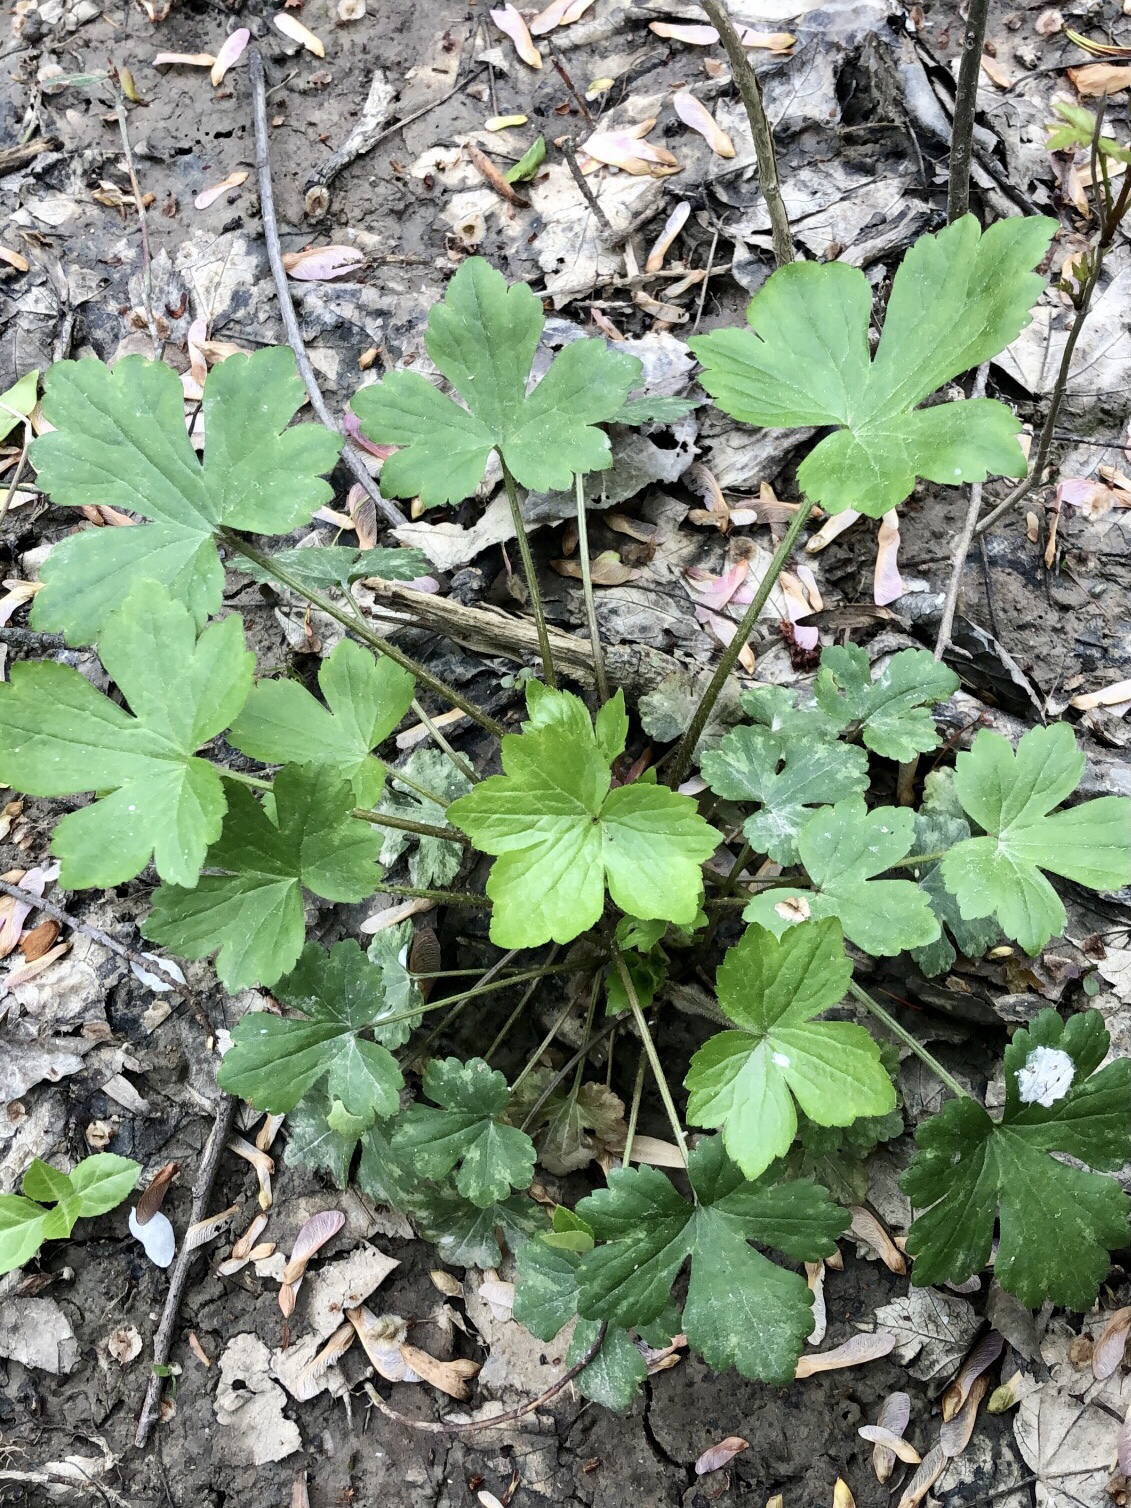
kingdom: Plantae
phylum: Tracheophyta
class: Magnoliopsida
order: Ranunculales
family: Ranunculaceae
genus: Ranunculus
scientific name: Ranunculus recurvatus
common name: Blisterwort
